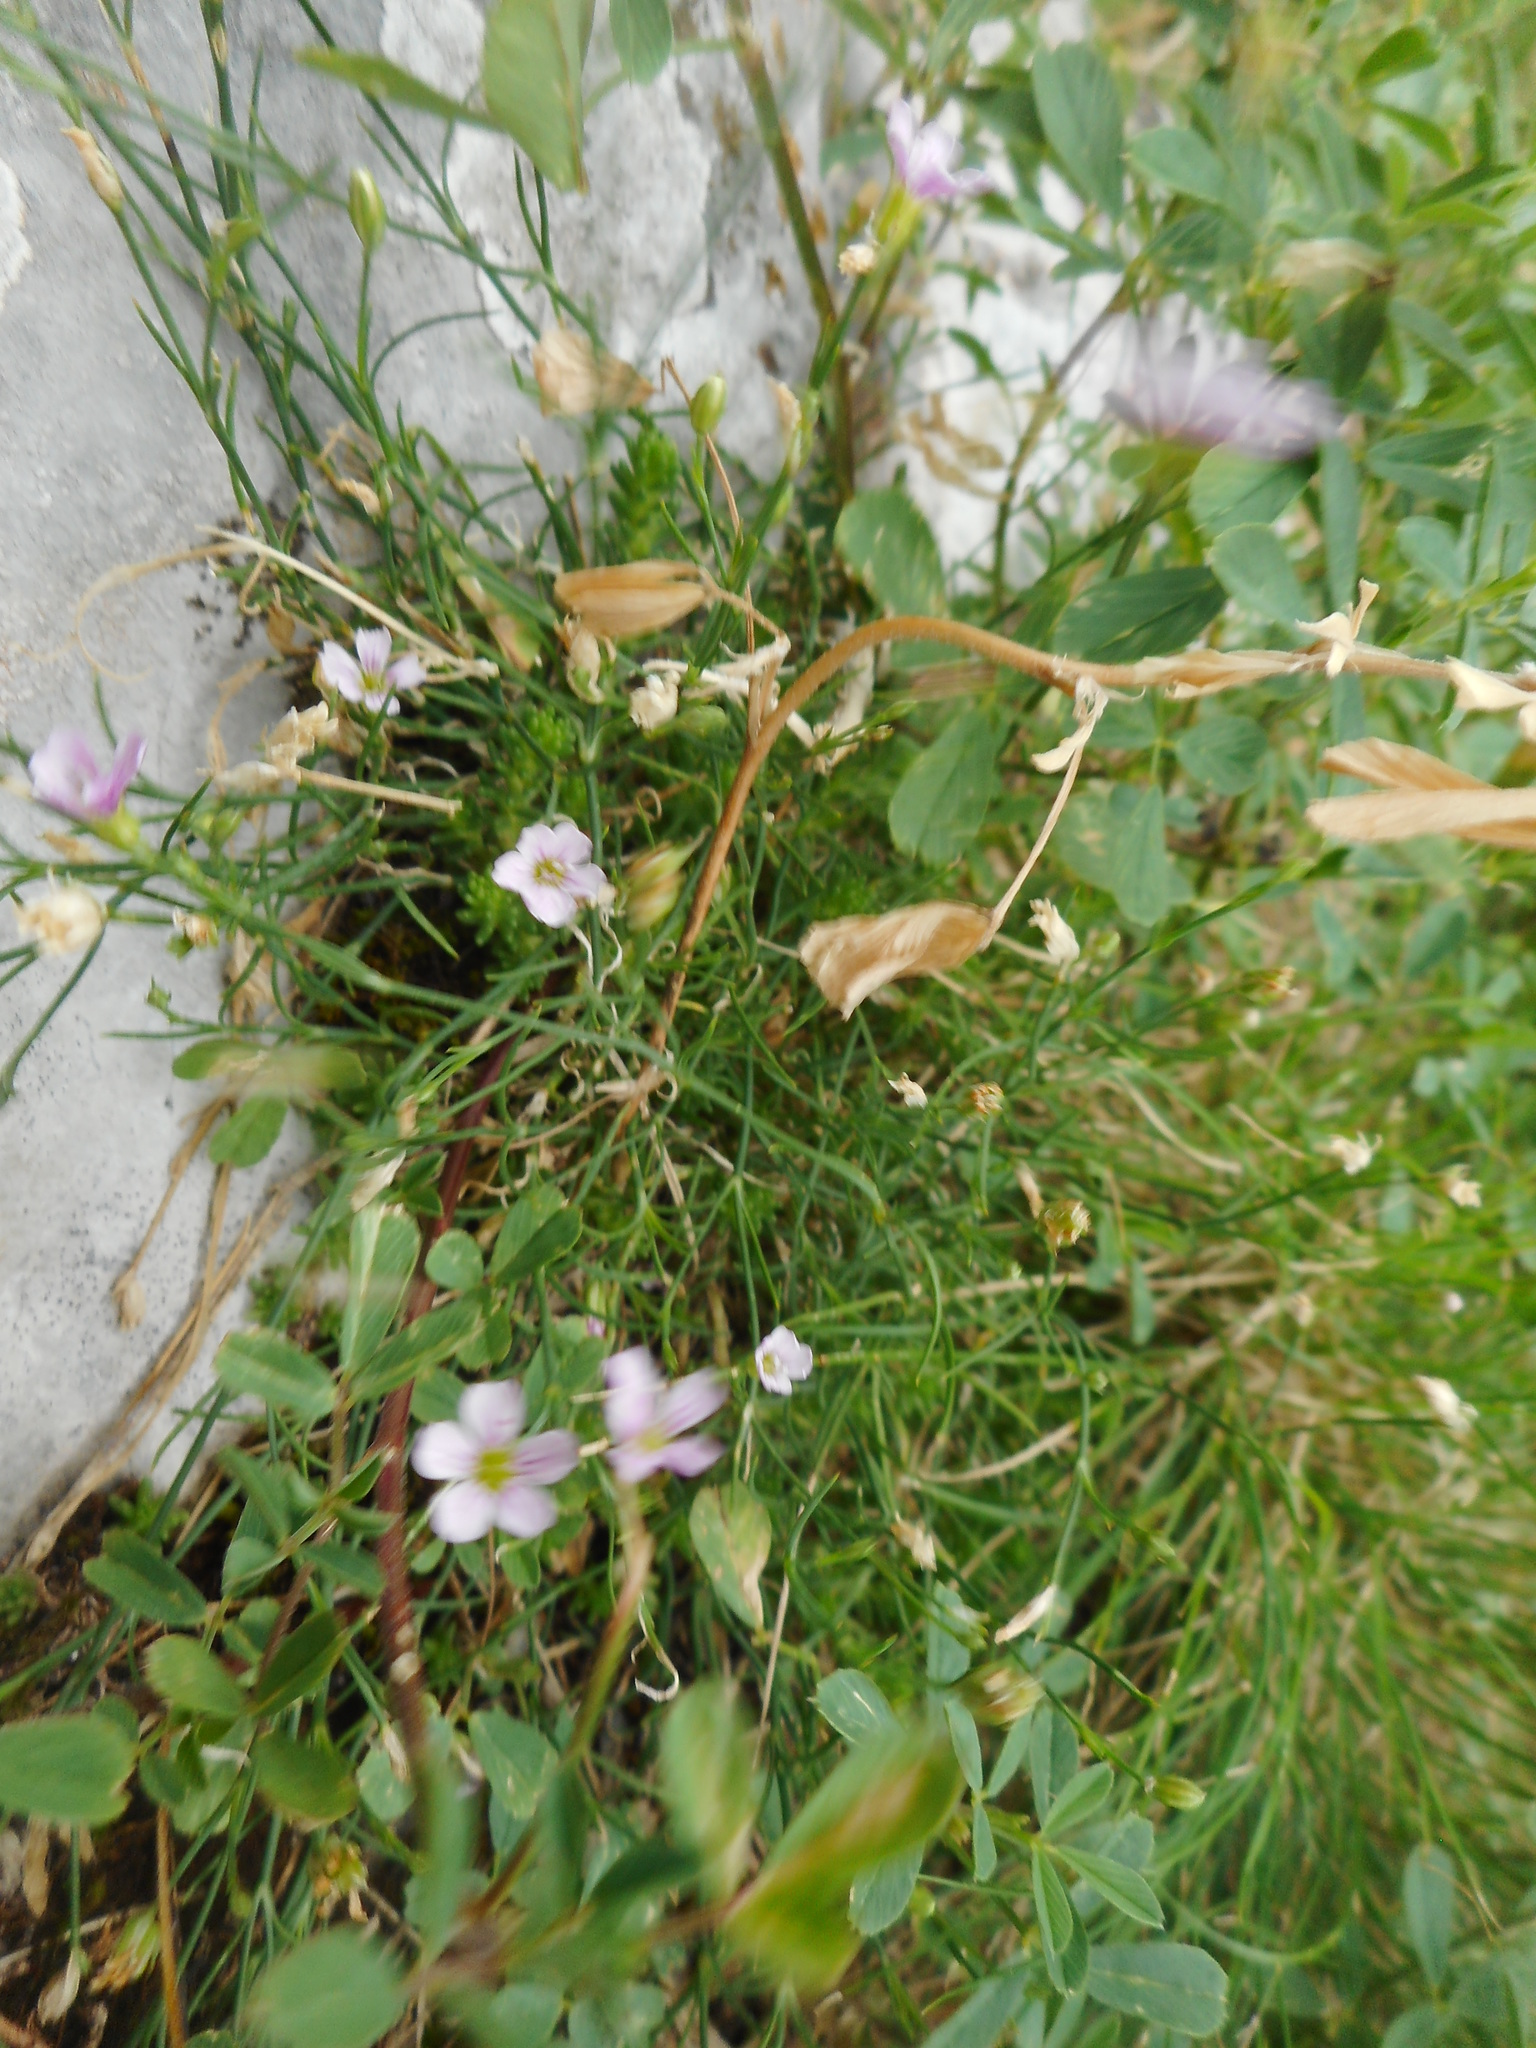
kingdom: Plantae
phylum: Tracheophyta
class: Magnoliopsida
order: Caryophyllales
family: Caryophyllaceae
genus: Petrorhagia
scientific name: Petrorhagia saxifraga
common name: Tunicflower
